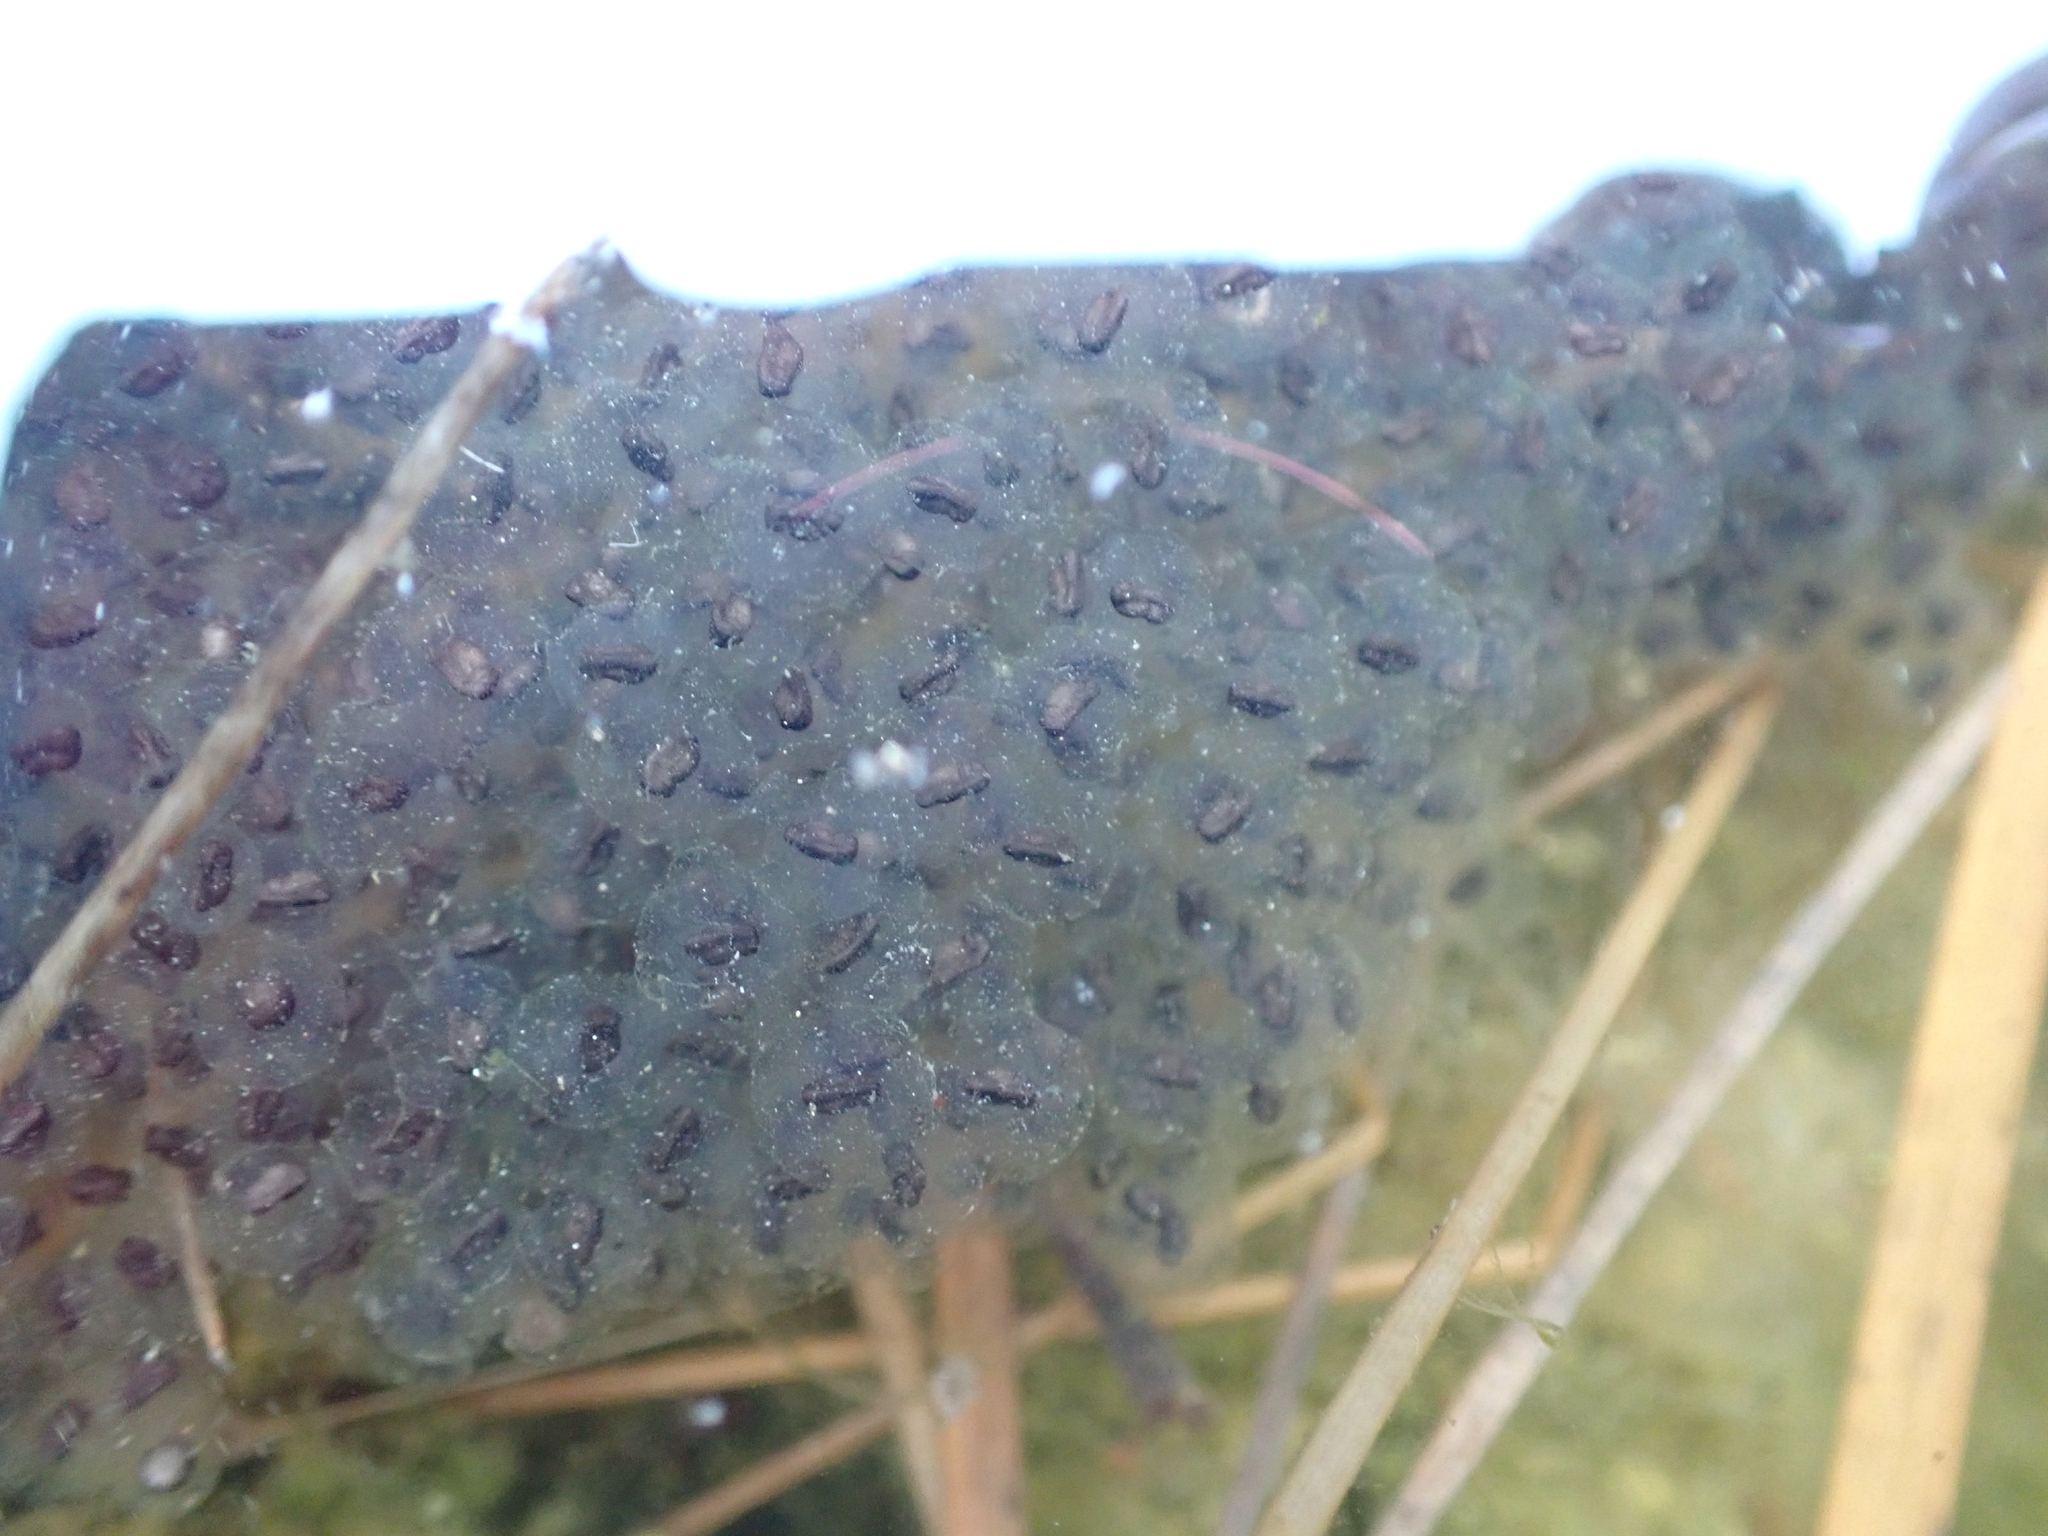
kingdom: Animalia
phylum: Chordata
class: Amphibia
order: Anura
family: Ranidae
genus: Lithobates
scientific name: Lithobates sylvaticus
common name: Wood frog
